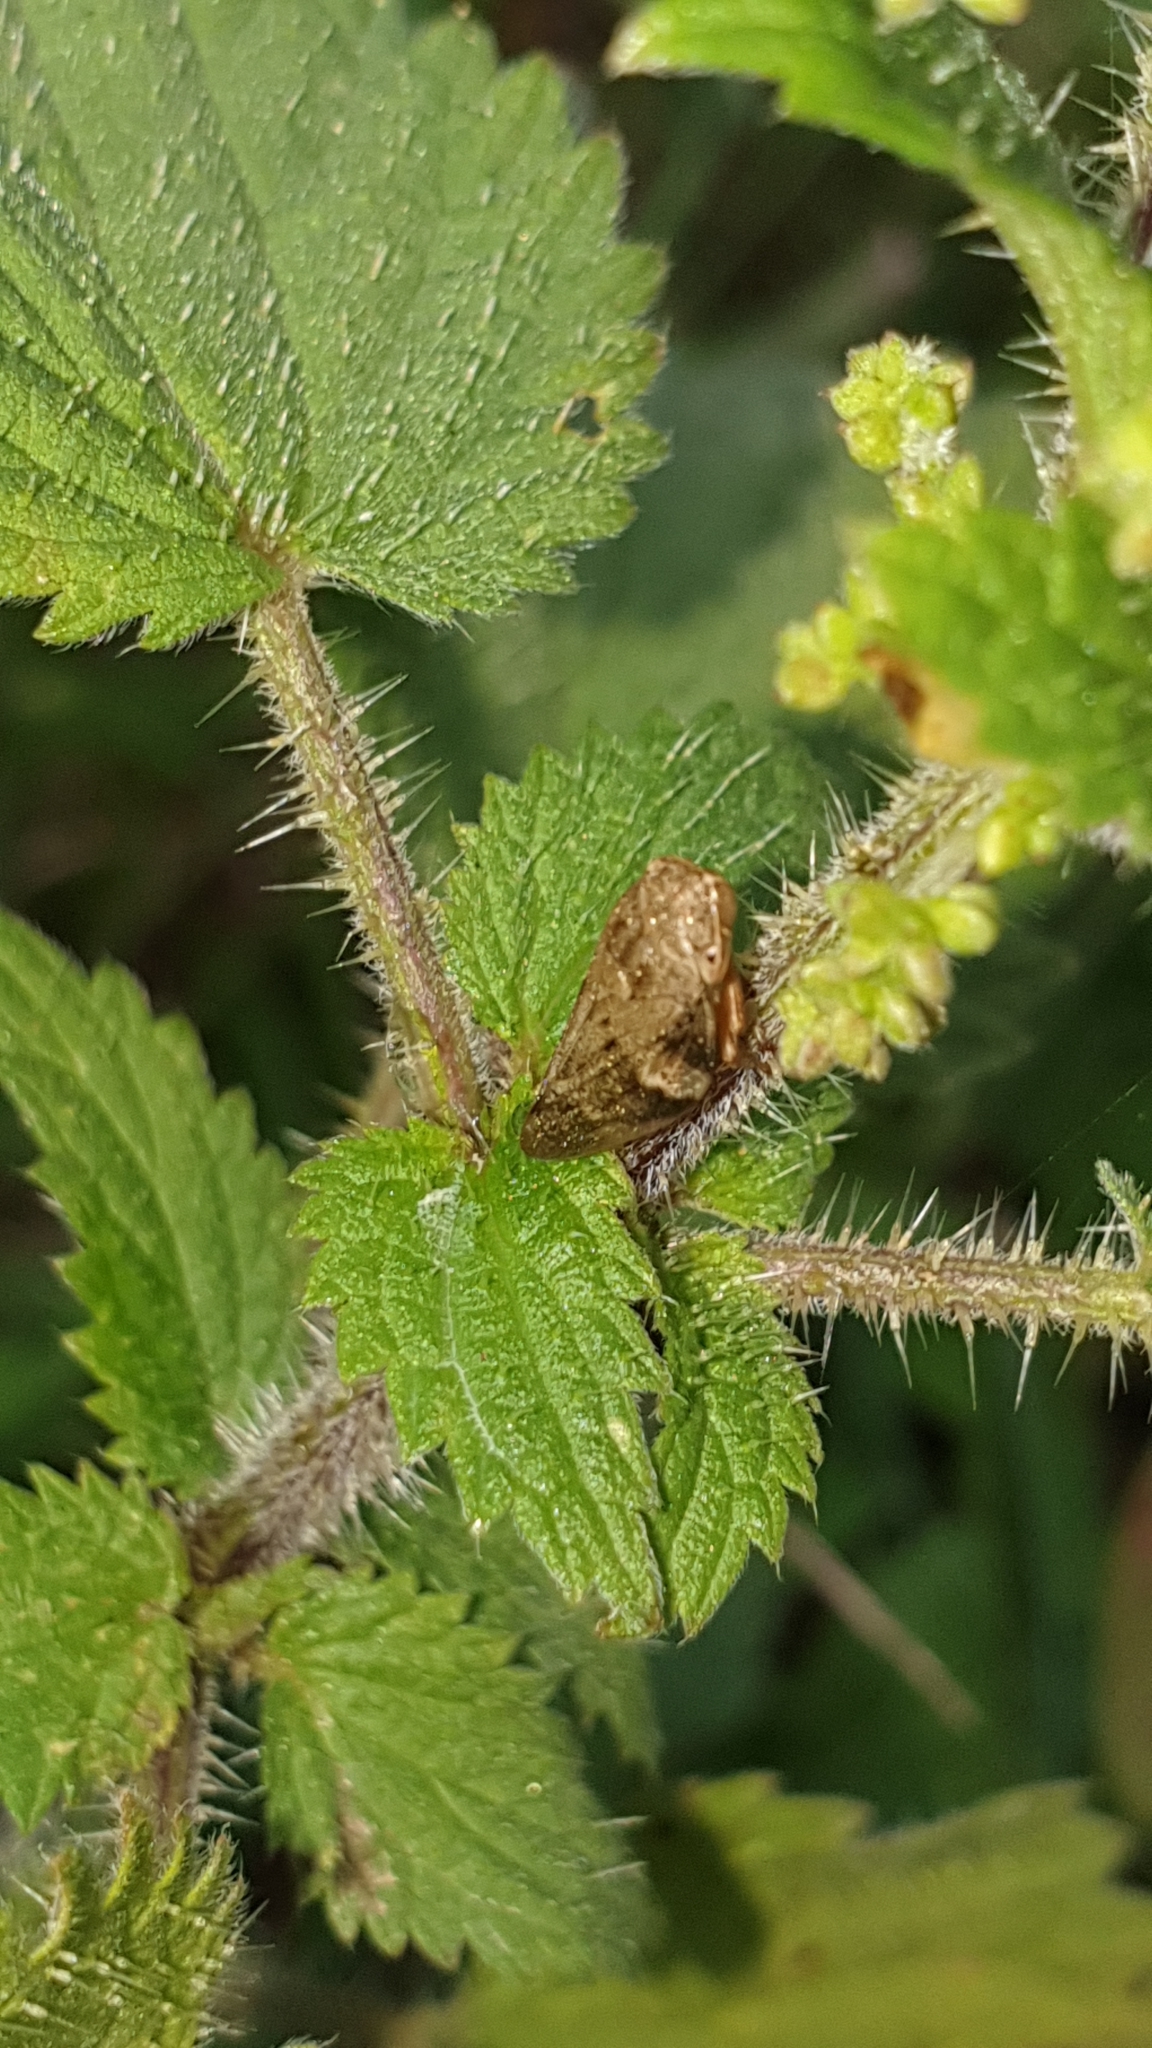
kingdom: Animalia
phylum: Arthropoda
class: Insecta
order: Hemiptera
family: Aphrophoridae
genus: Philaenus
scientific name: Philaenus spumarius
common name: Meadow spittlebug
